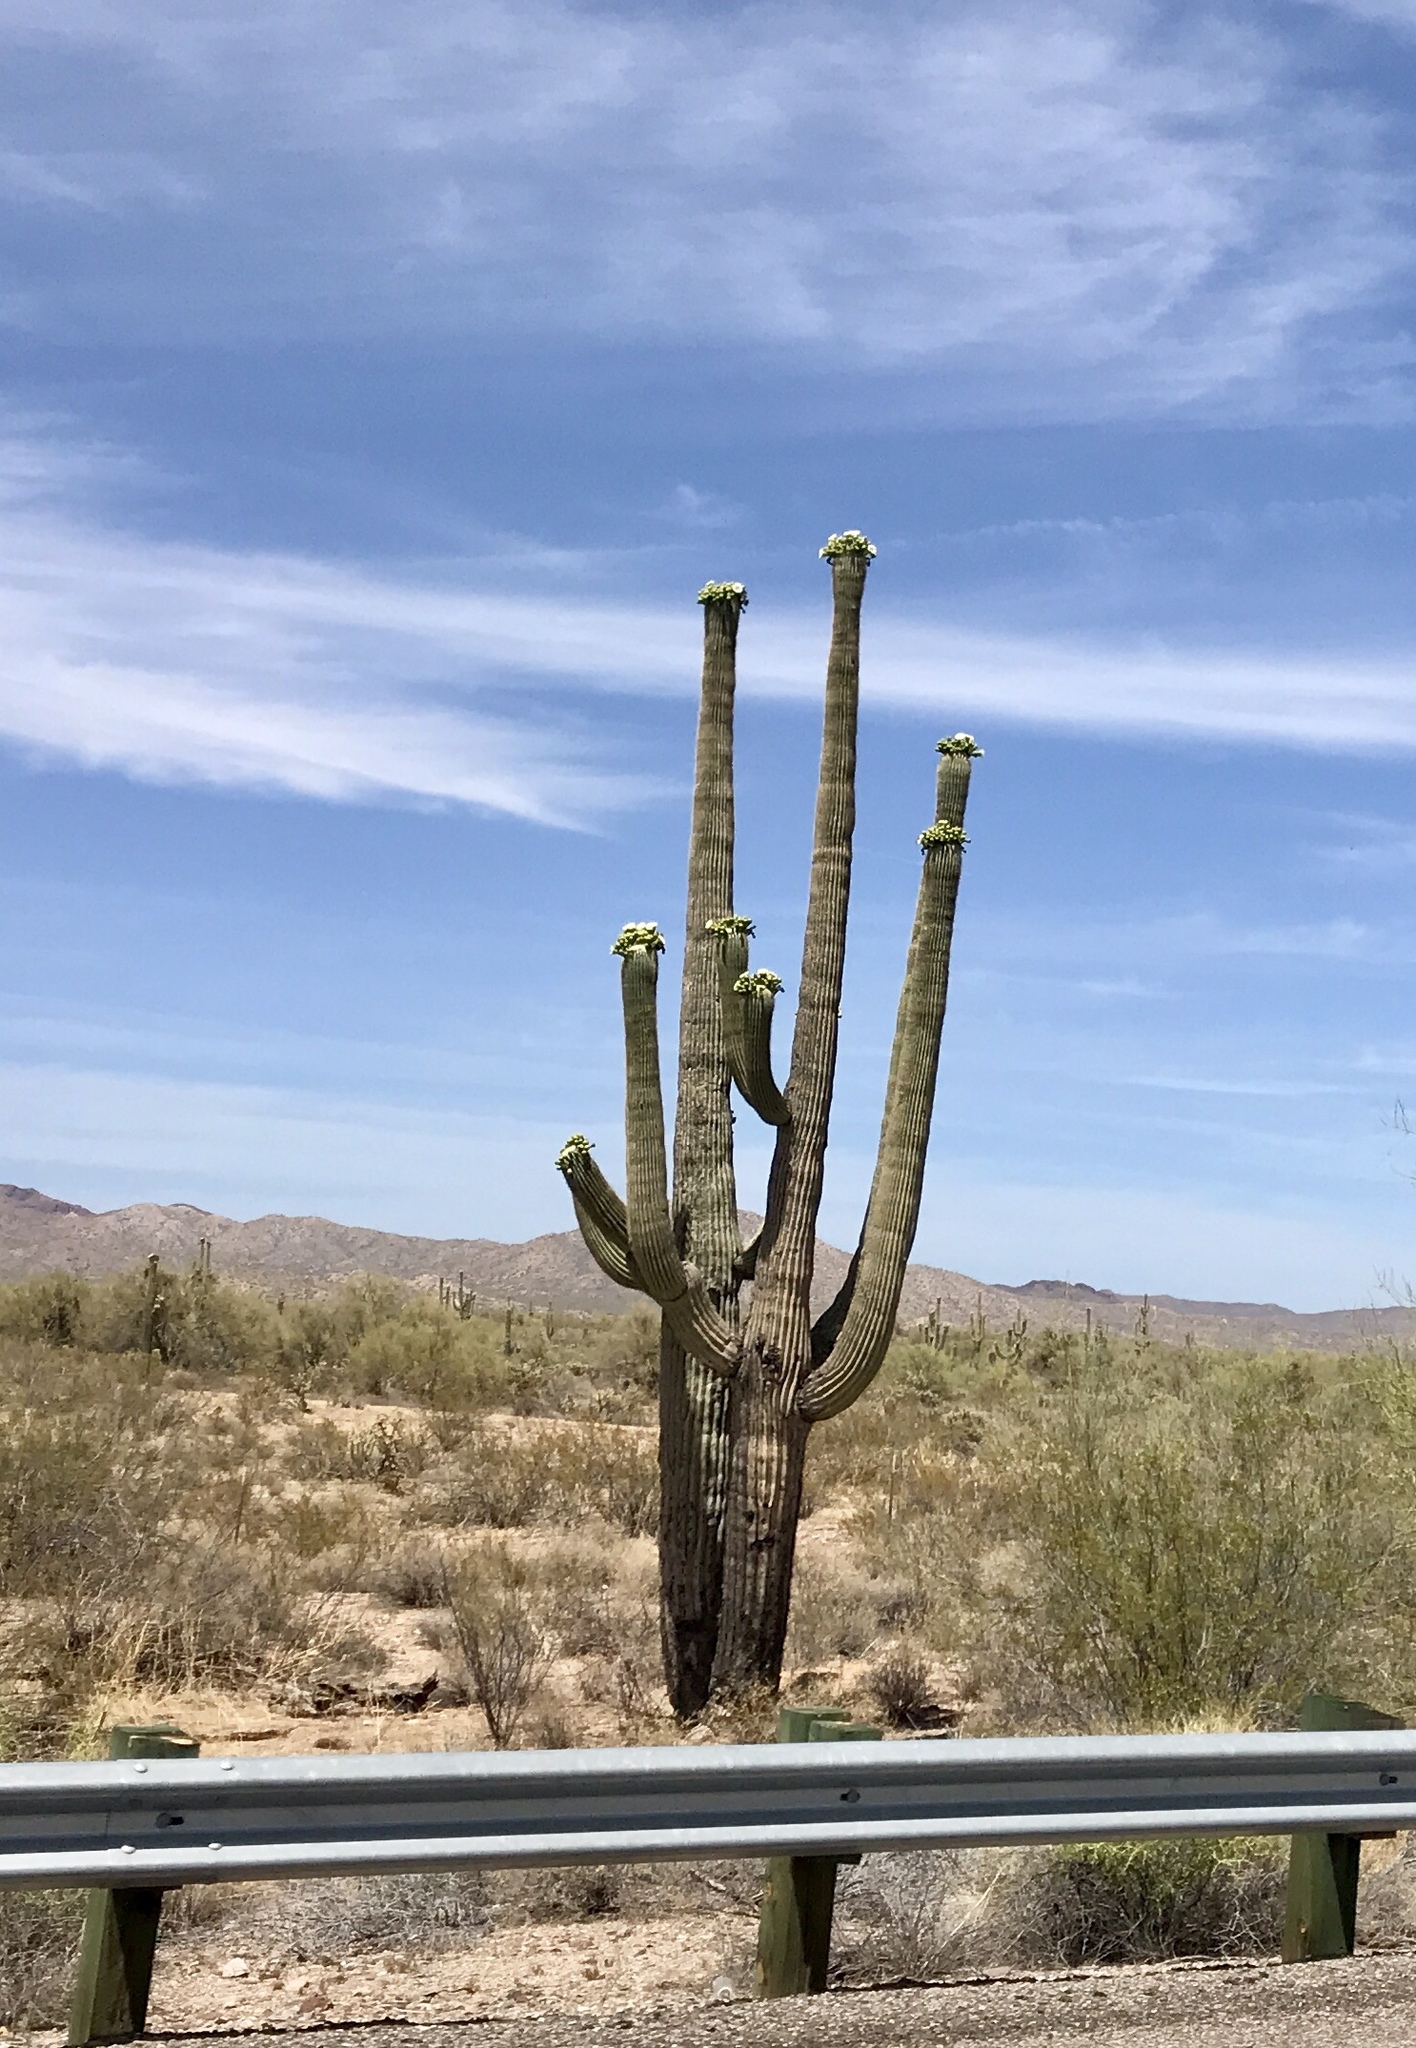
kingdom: Plantae
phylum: Tracheophyta
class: Magnoliopsida
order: Caryophyllales
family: Cactaceae
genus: Carnegiea
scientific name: Carnegiea gigantea
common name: Saguaro
